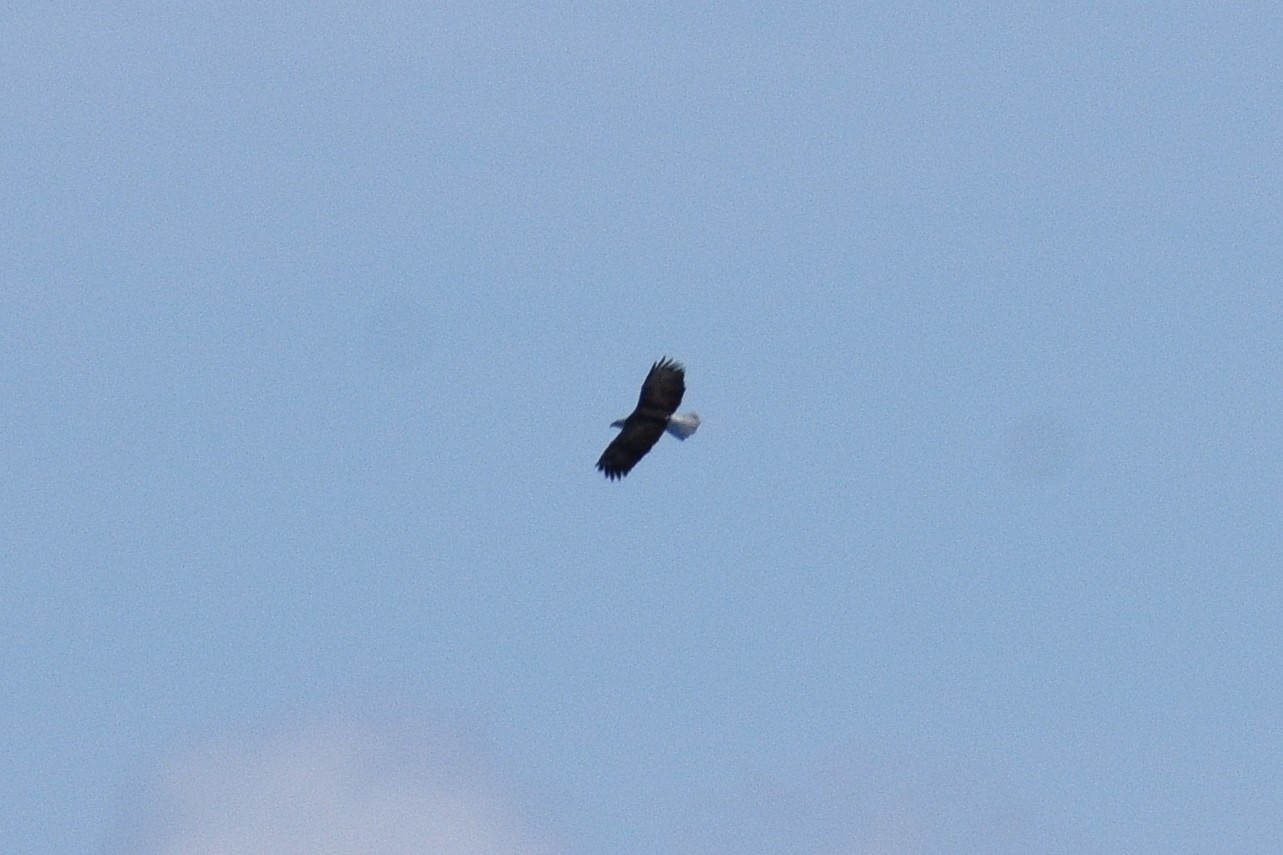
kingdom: Animalia
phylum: Chordata
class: Aves
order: Accipitriformes
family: Accipitridae
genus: Haliaeetus
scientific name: Haliaeetus leucocephalus
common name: Bald eagle
